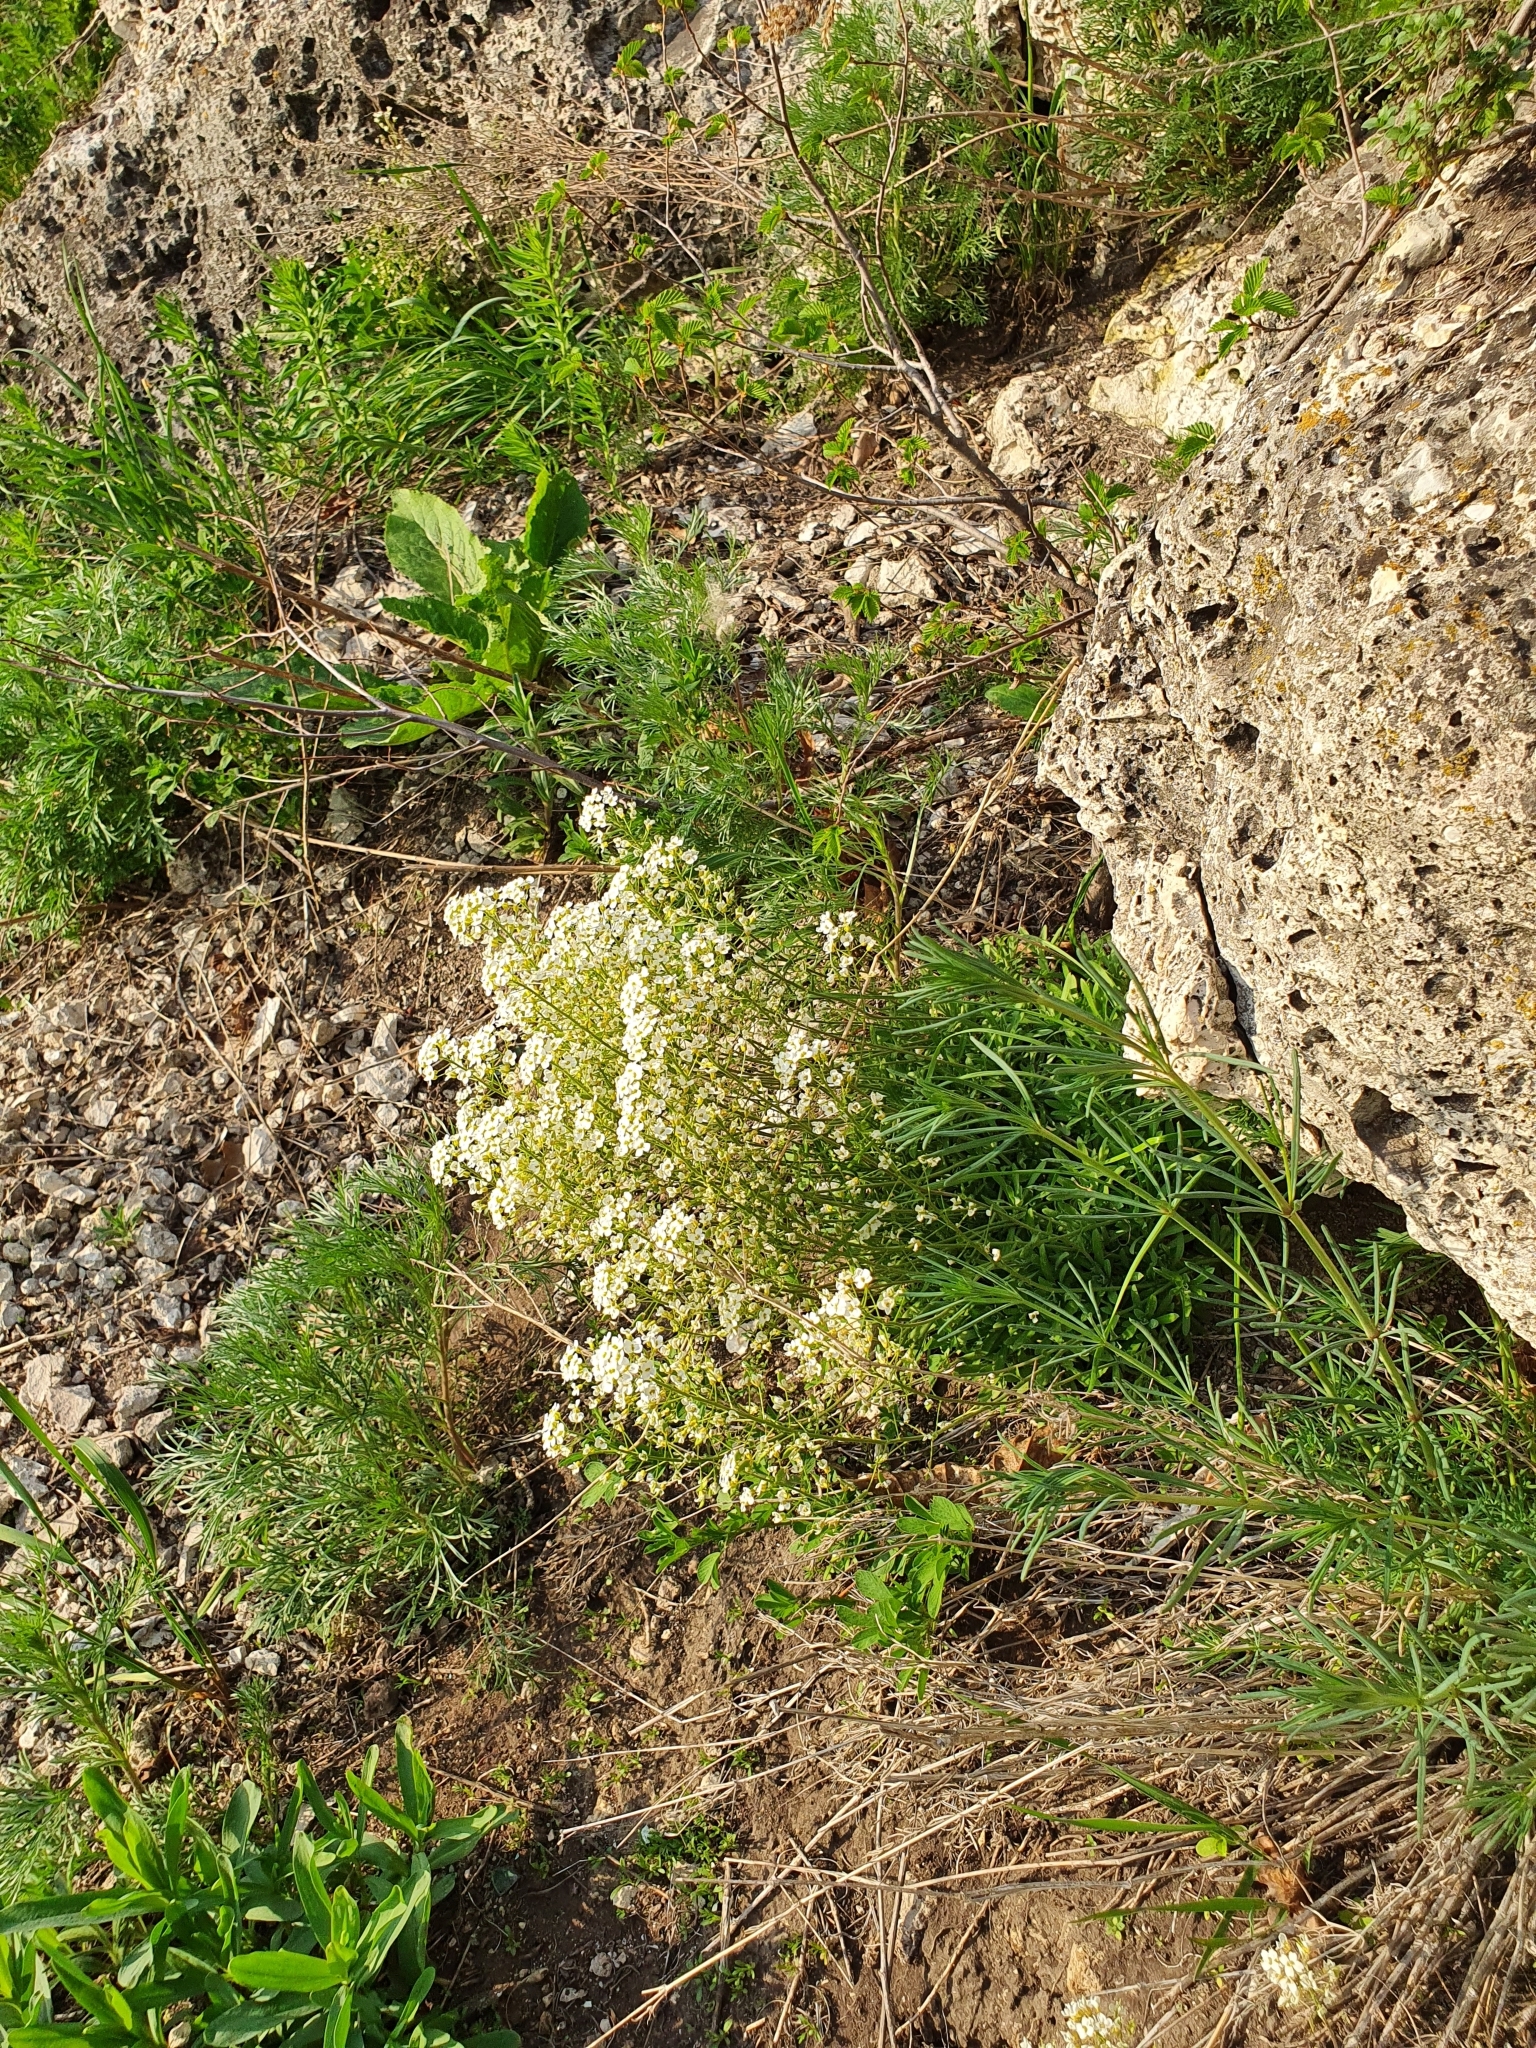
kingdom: Plantae
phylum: Tracheophyta
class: Magnoliopsida
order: Brassicales
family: Brassicaceae
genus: Draba
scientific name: Draba hyperborea
